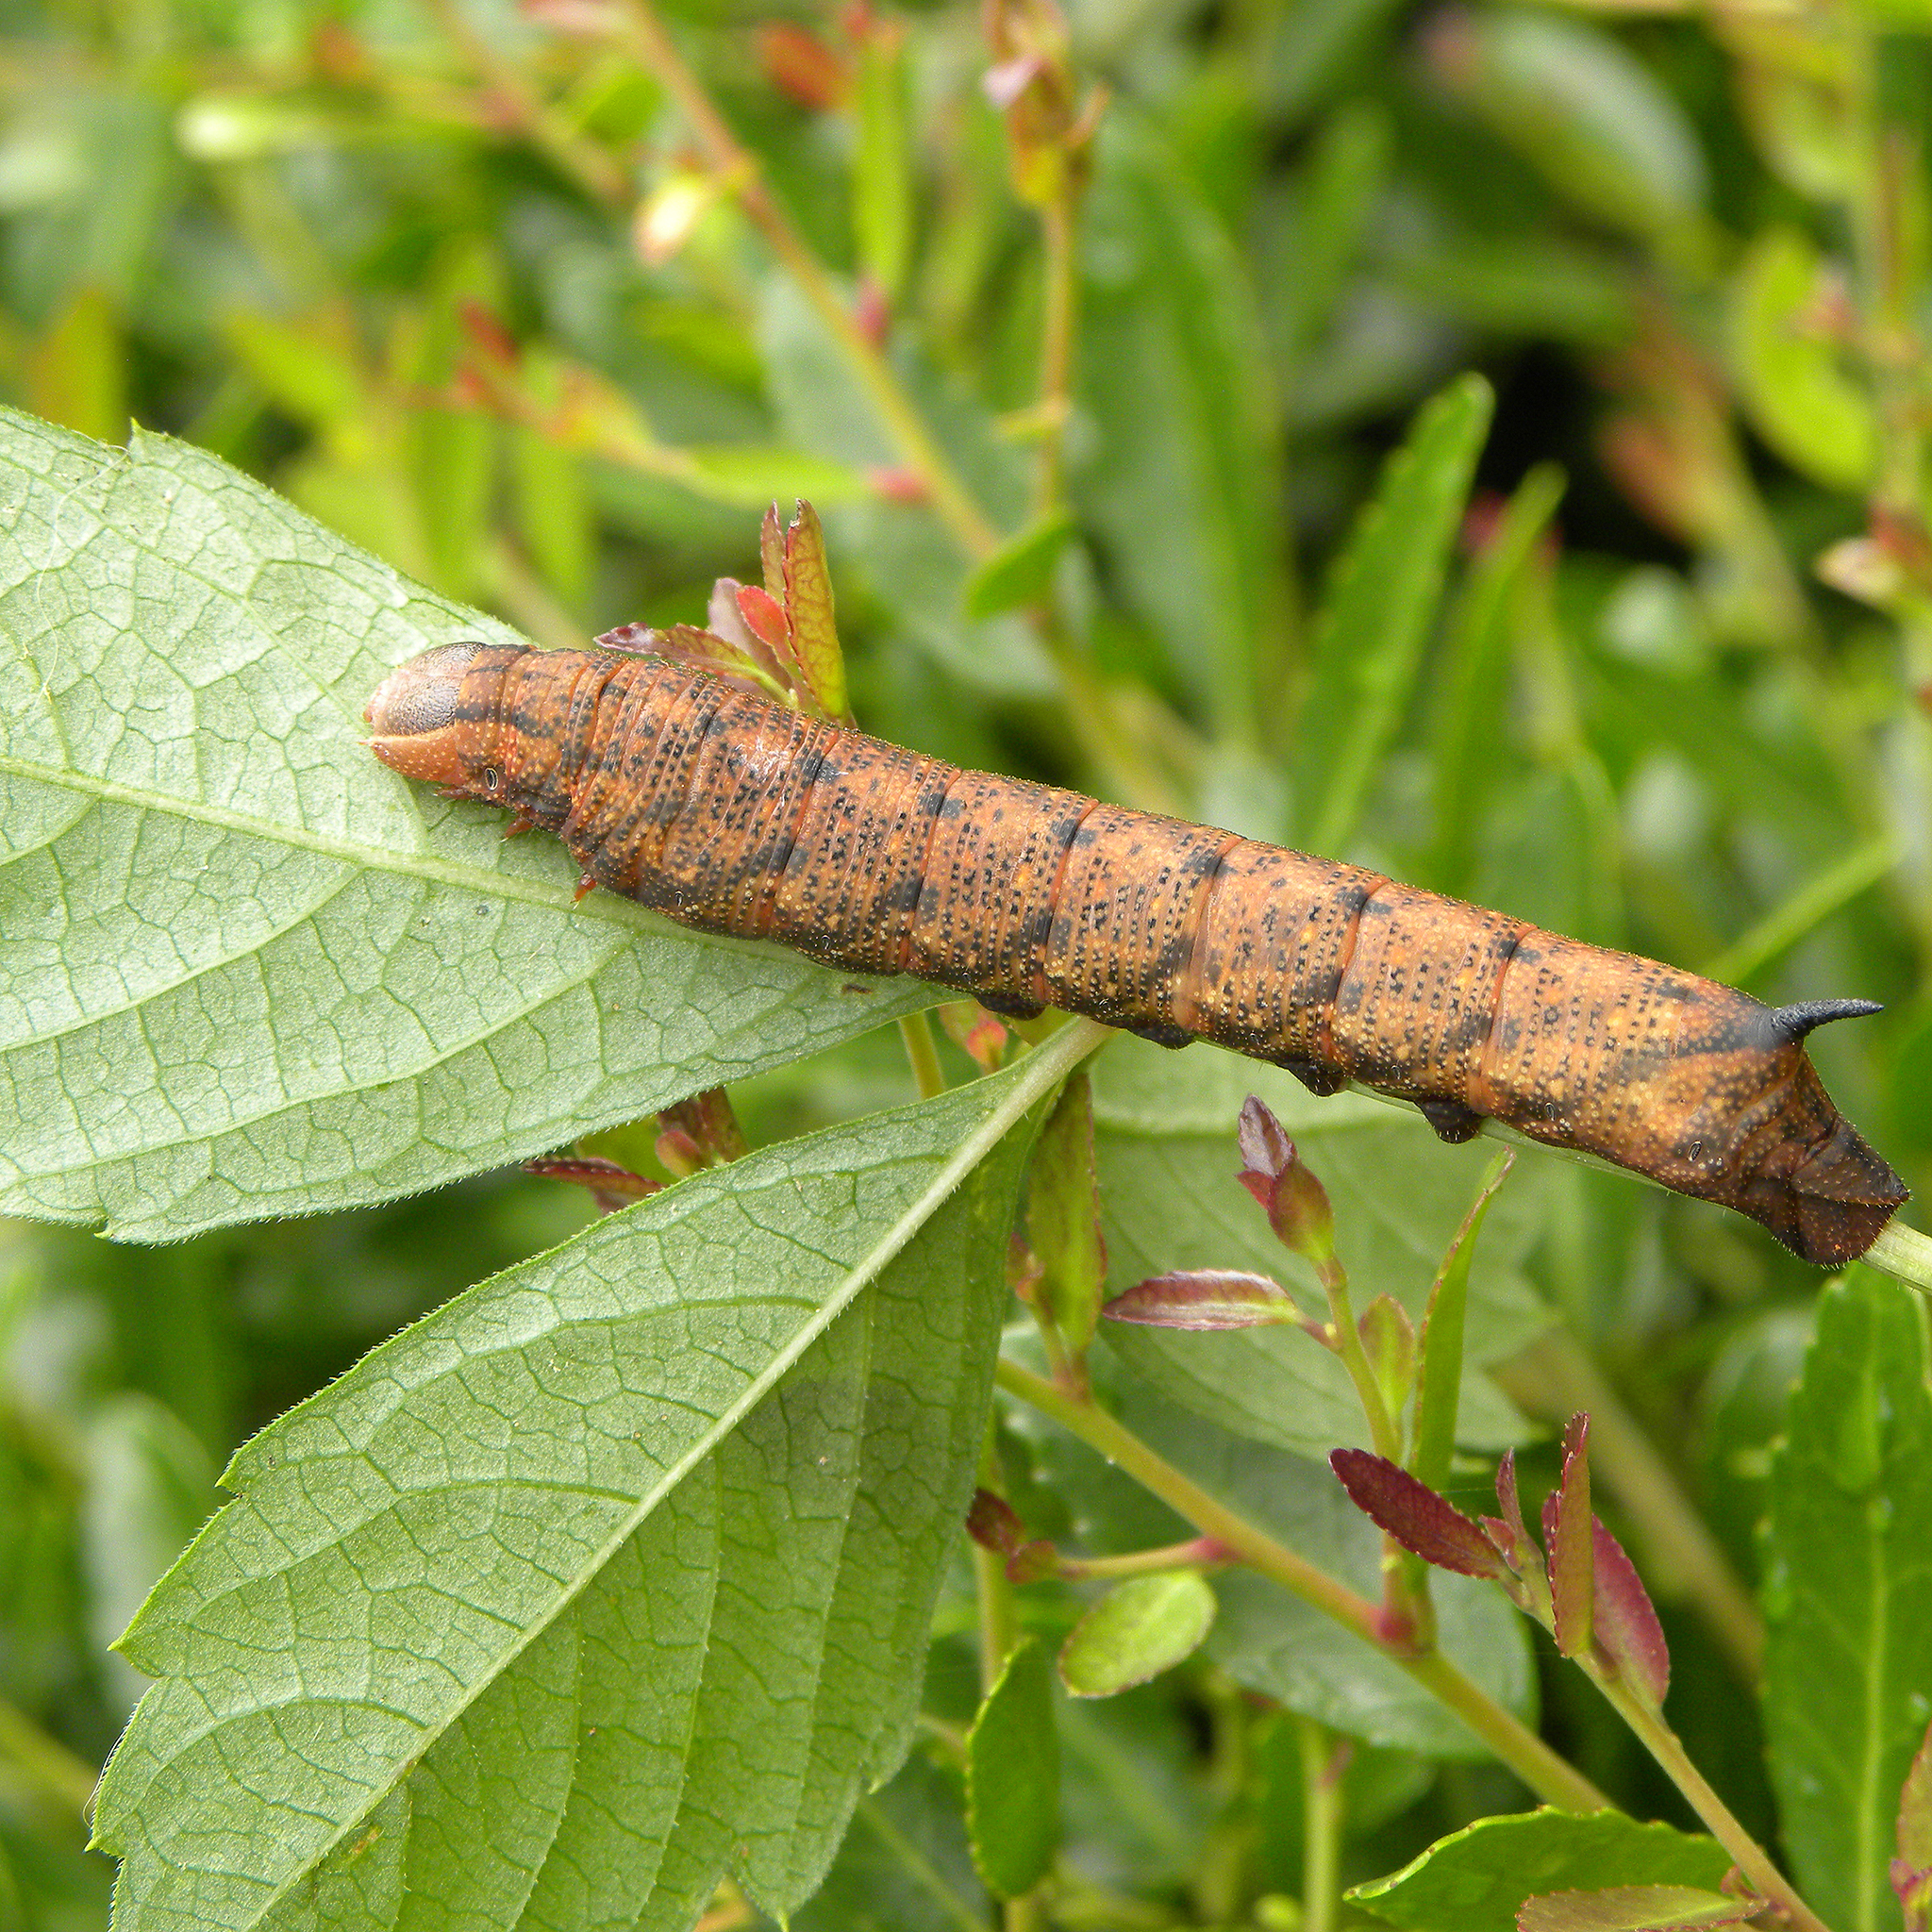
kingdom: Animalia
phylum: Arthropoda
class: Insecta
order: Lepidoptera
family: Sphingidae
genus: Amphion
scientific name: Amphion floridensis
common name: Nessus sphinx
